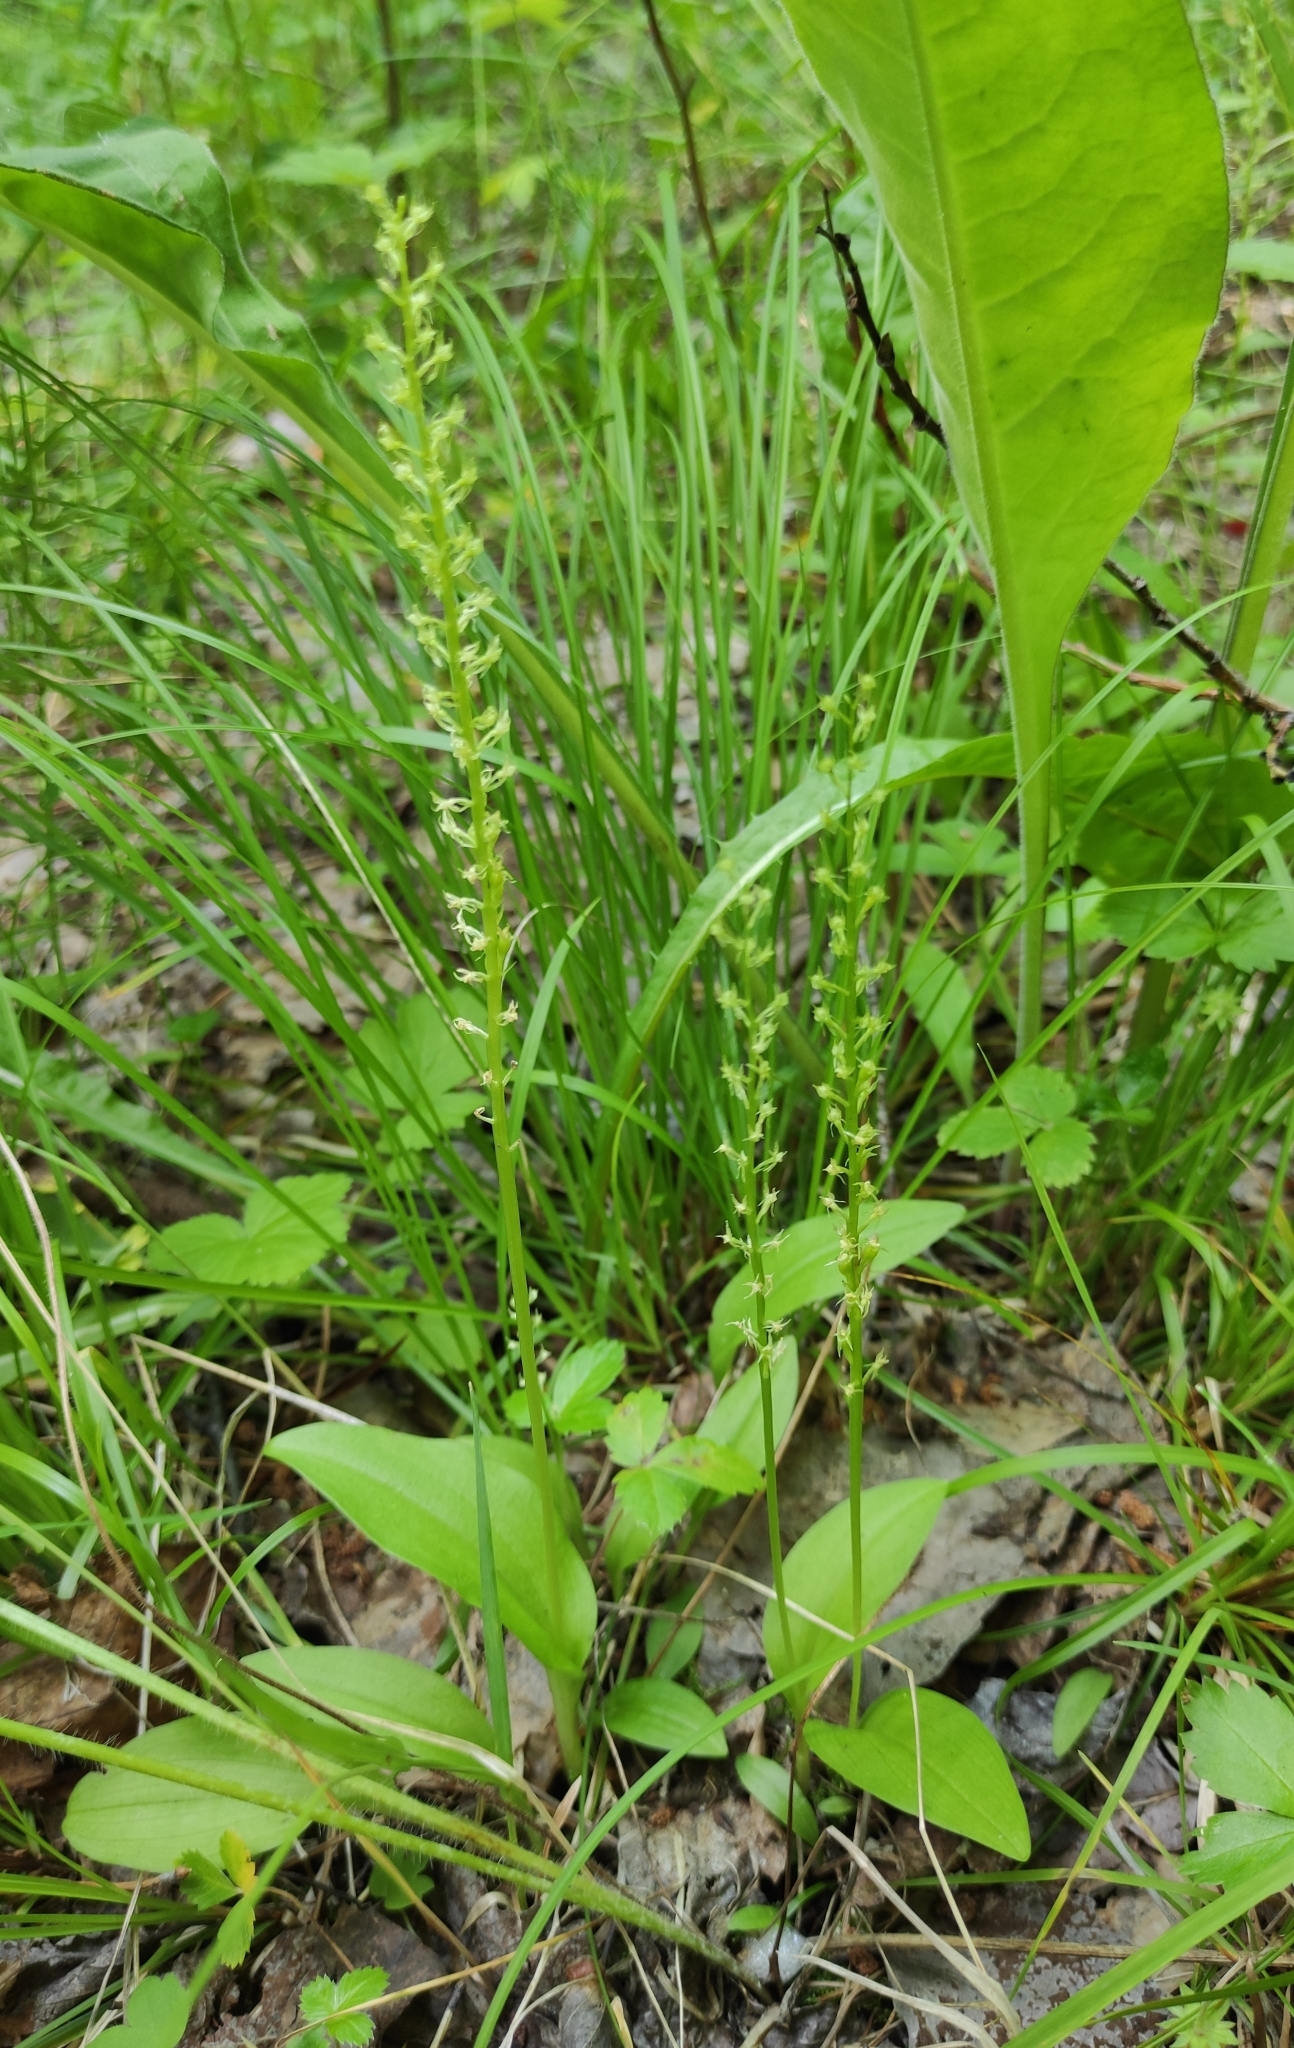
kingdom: Plantae
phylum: Tracheophyta
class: Liliopsida
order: Asparagales
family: Orchidaceae
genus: Malaxis
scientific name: Malaxis monophyllos
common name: White adder's-mouth
